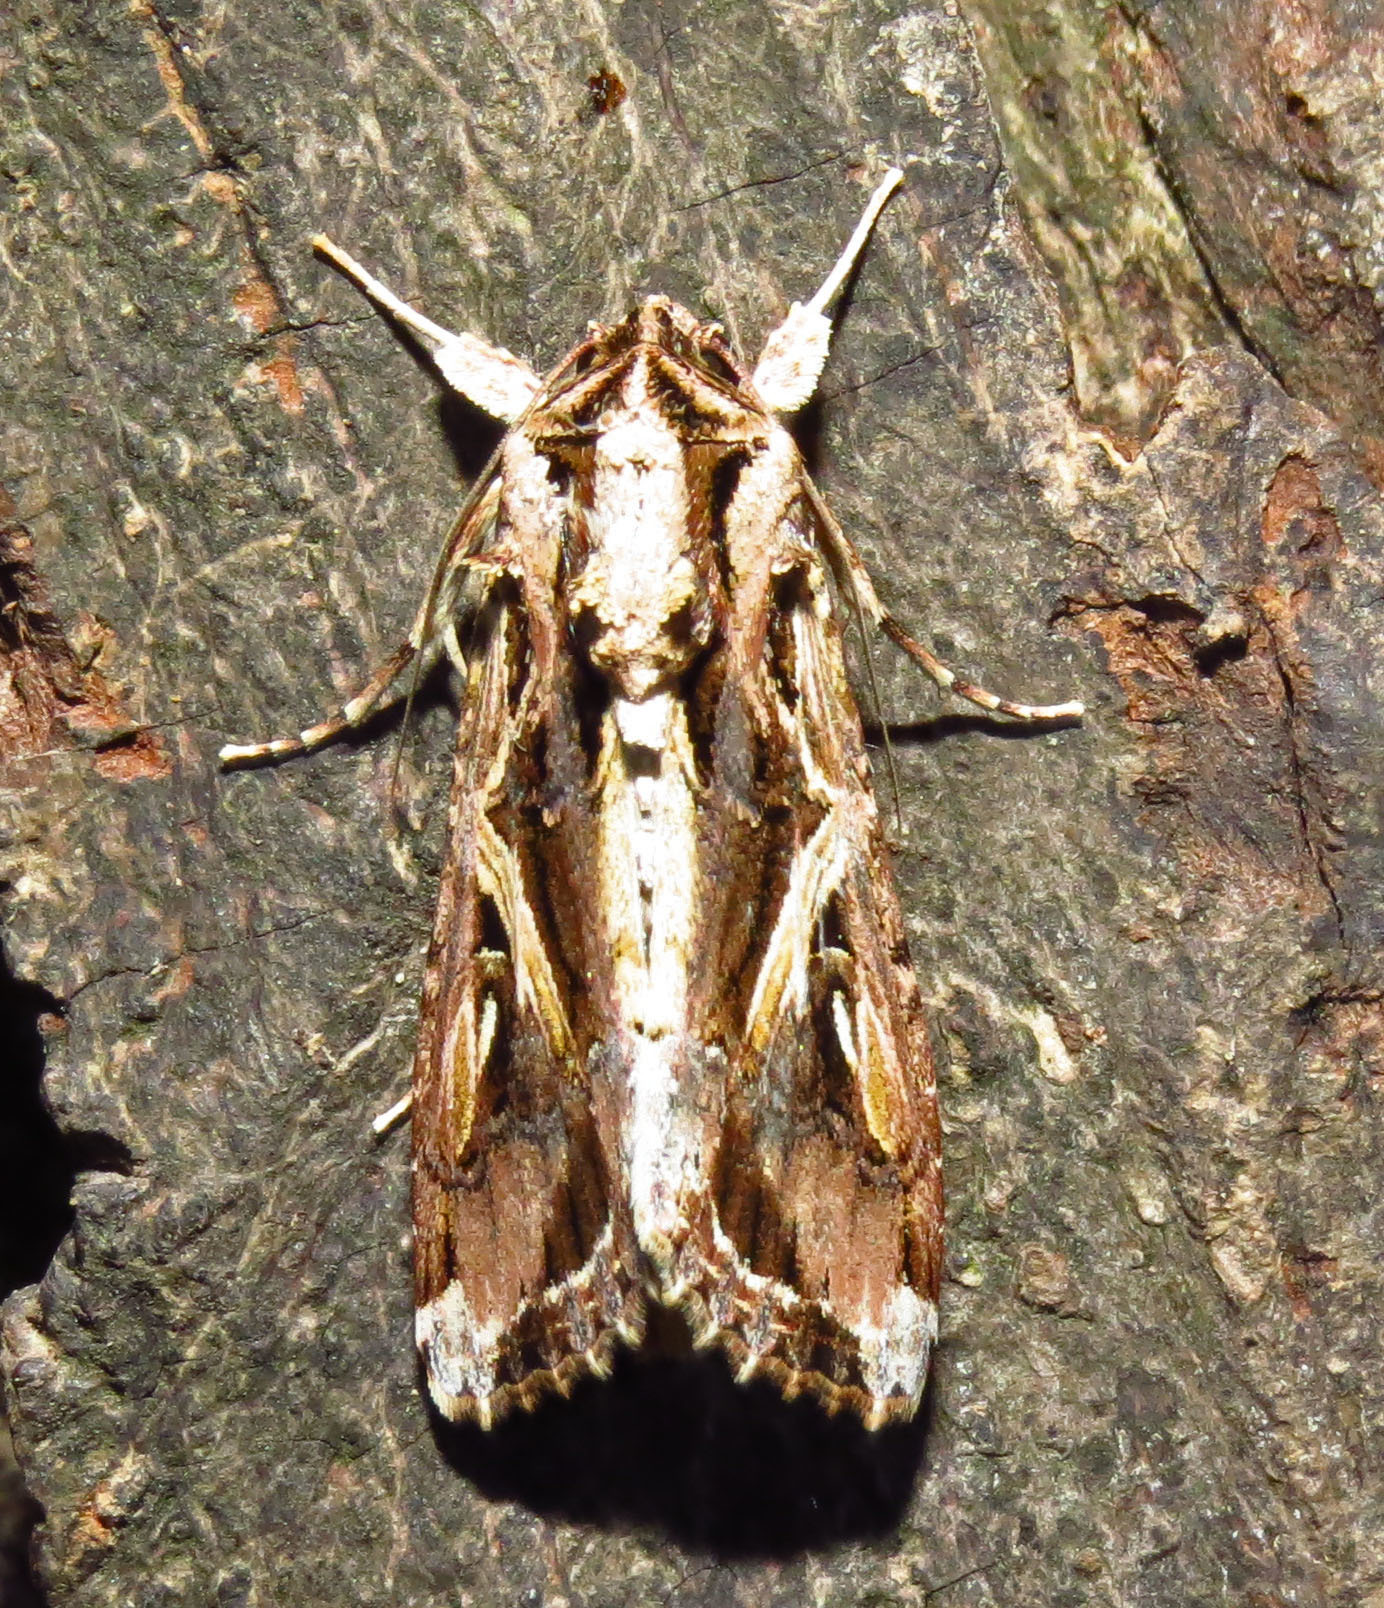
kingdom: Animalia
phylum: Arthropoda
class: Insecta
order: Lepidoptera
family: Noctuidae
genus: Spodoptera
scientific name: Spodoptera dolichos
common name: Sweetpotato armyworm
